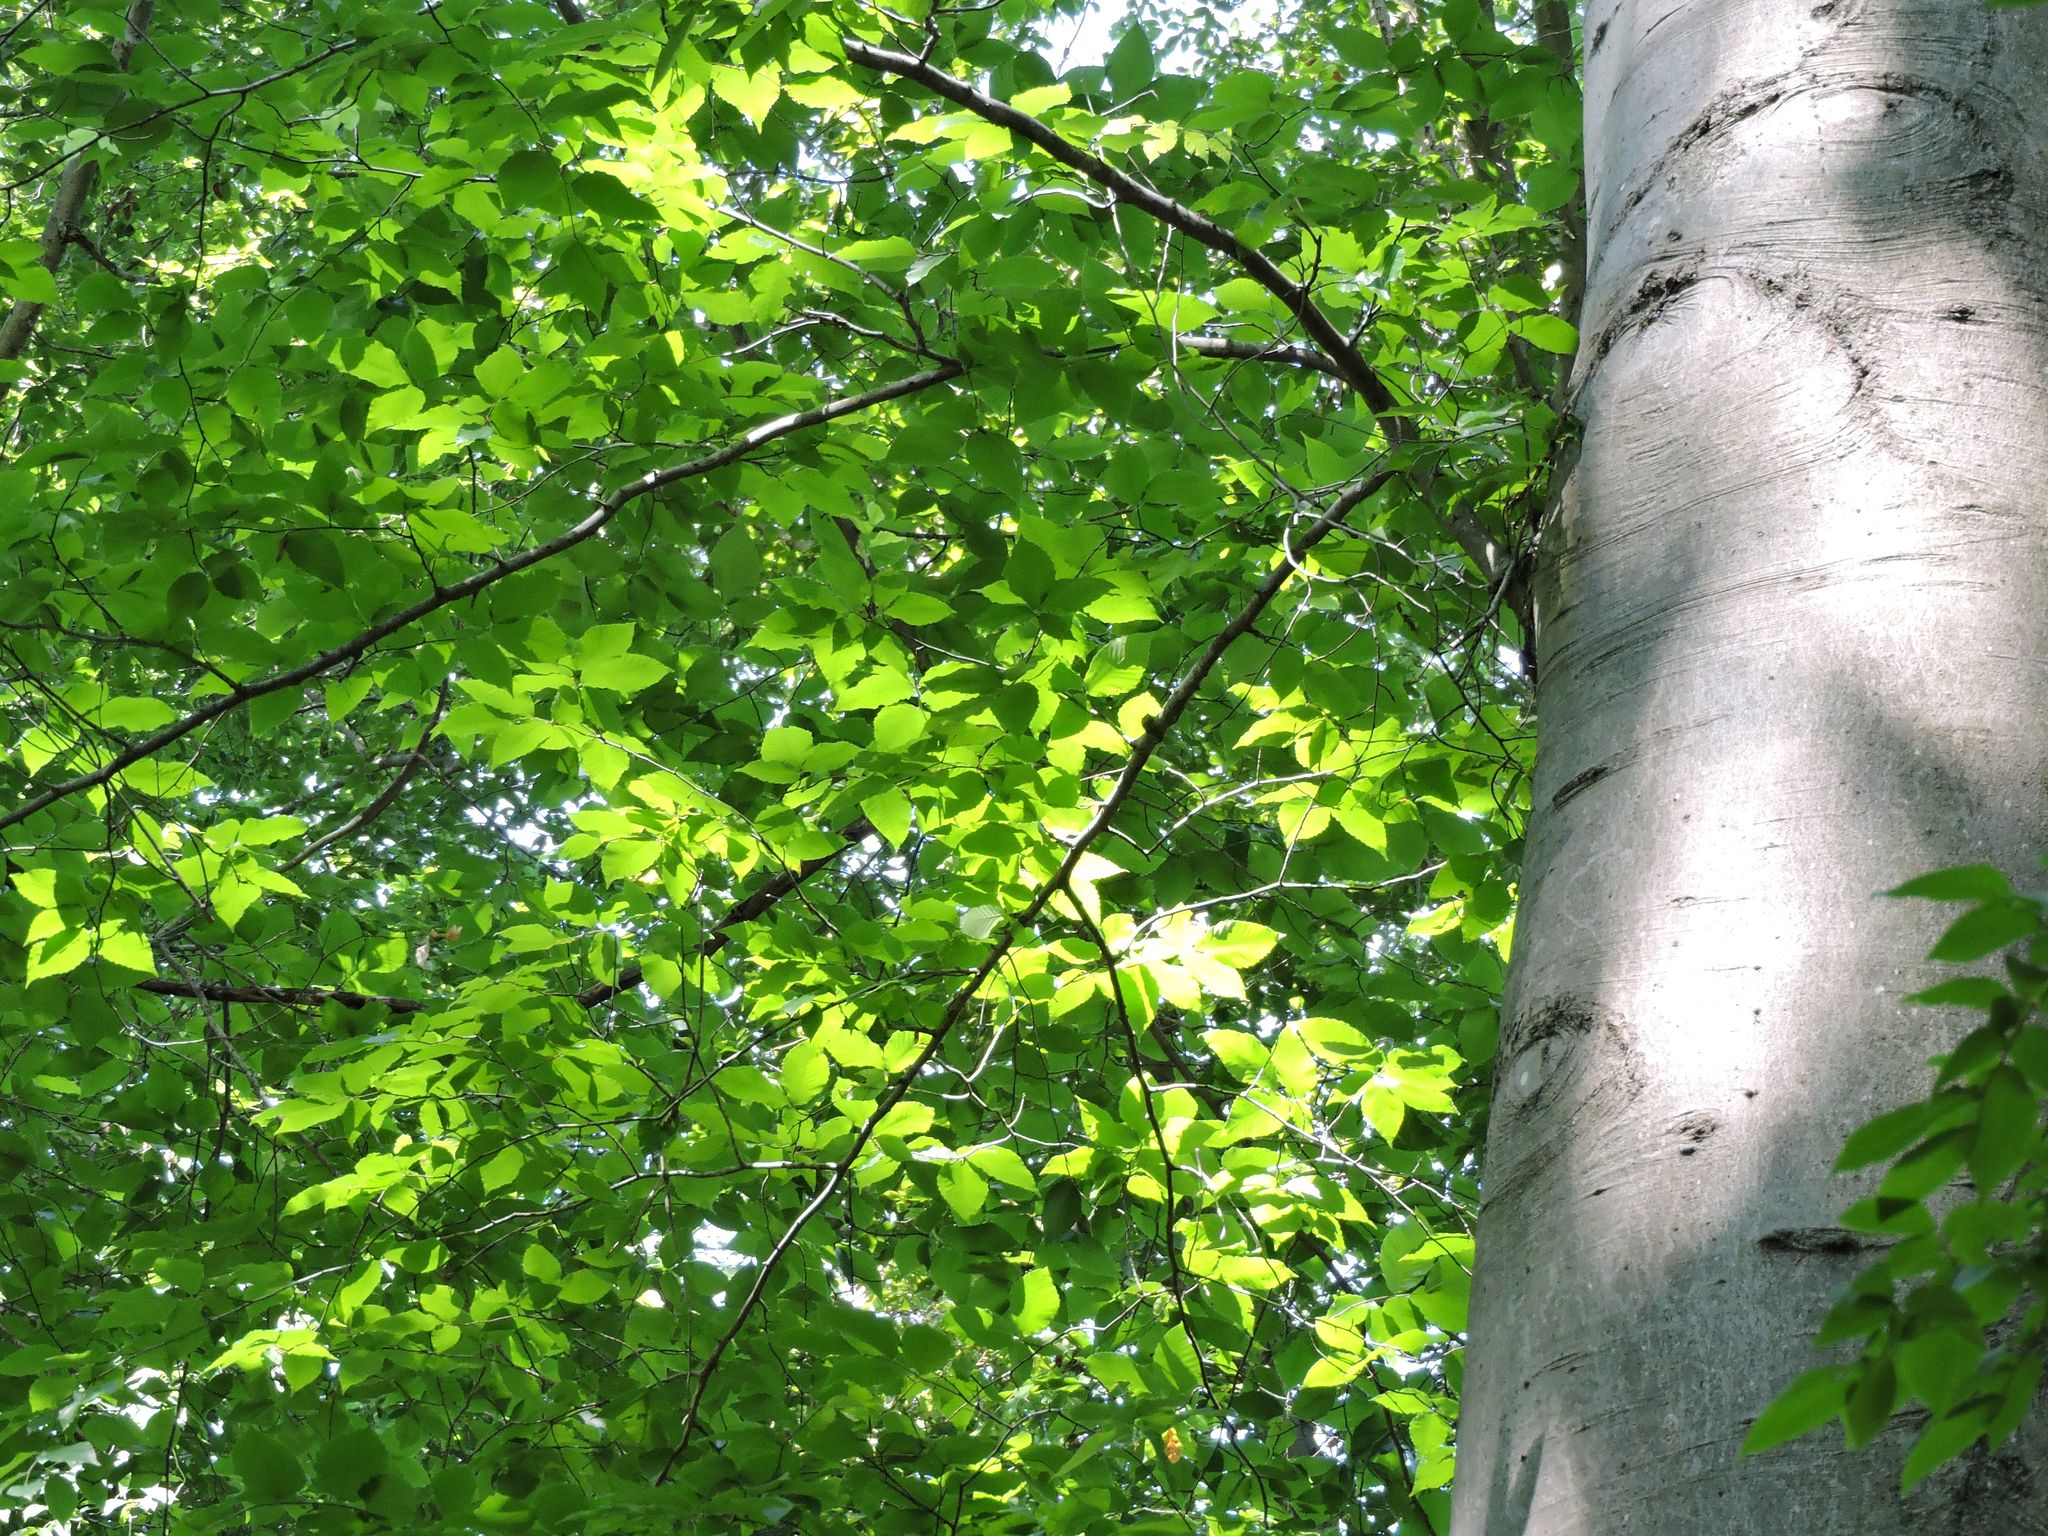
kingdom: Plantae
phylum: Tracheophyta
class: Magnoliopsida
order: Fagales
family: Fagaceae
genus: Fagus
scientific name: Fagus grandifolia
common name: American beech
